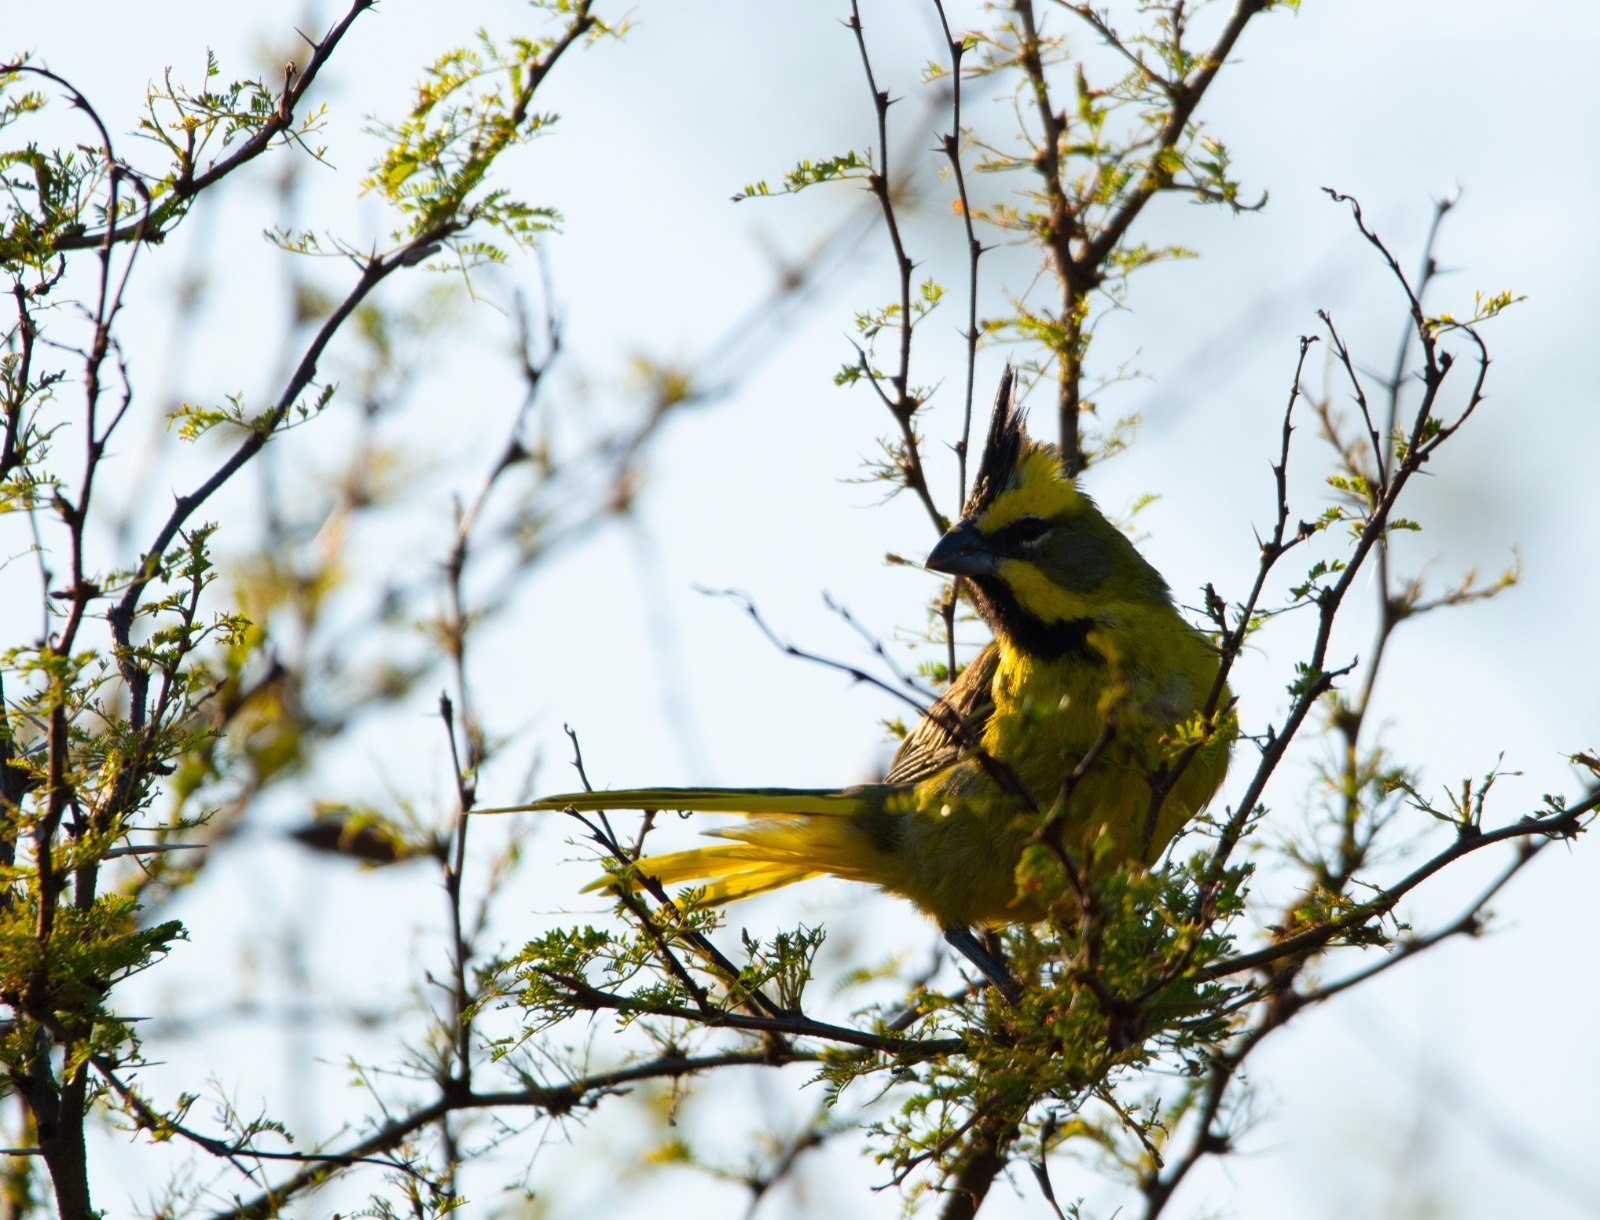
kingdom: Animalia
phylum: Chordata
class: Aves
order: Passeriformes
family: Thraupidae
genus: Gubernatrix
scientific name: Gubernatrix cristata
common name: Yellow cardinal
